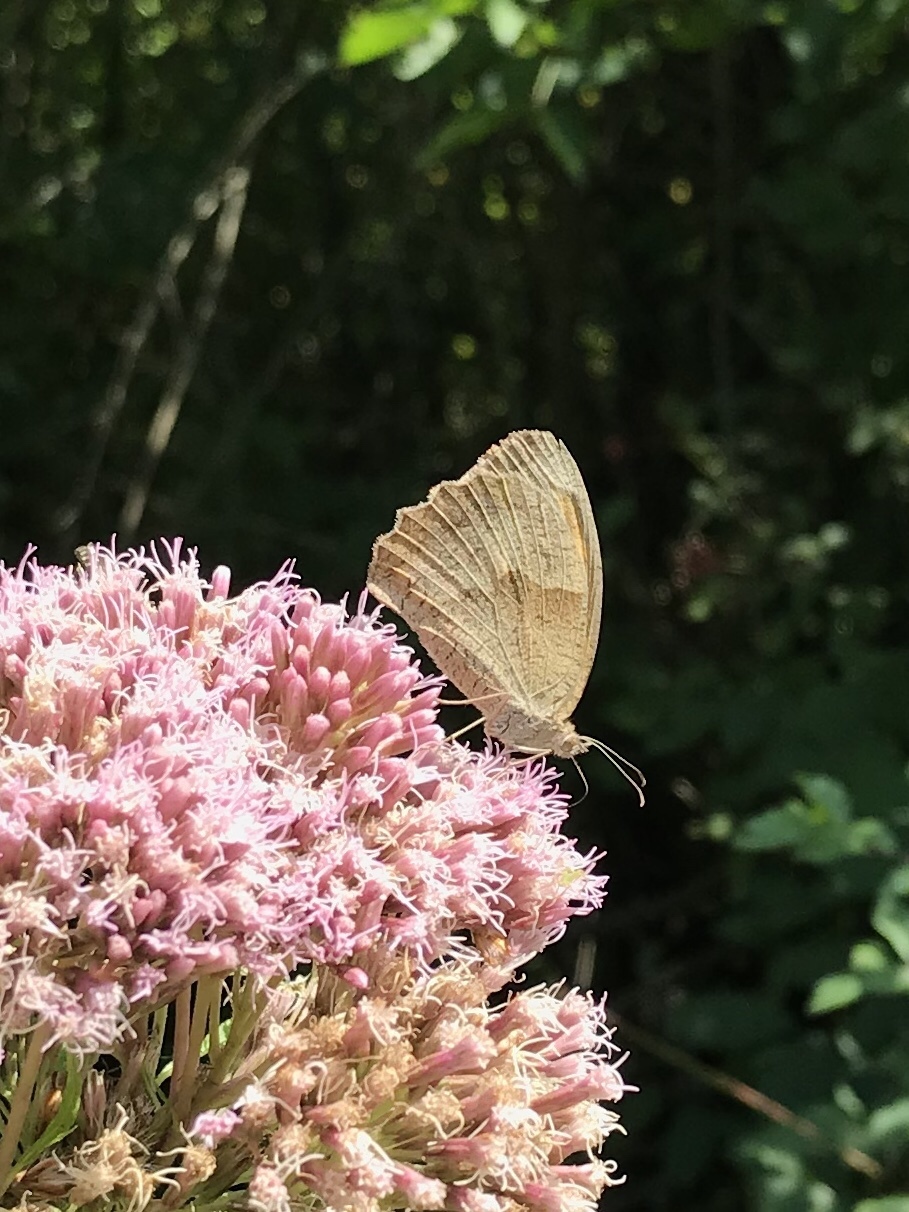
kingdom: Animalia
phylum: Arthropoda
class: Insecta
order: Lepidoptera
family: Nymphalidae
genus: Maniola
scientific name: Maniola jurtina
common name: Meadow brown
